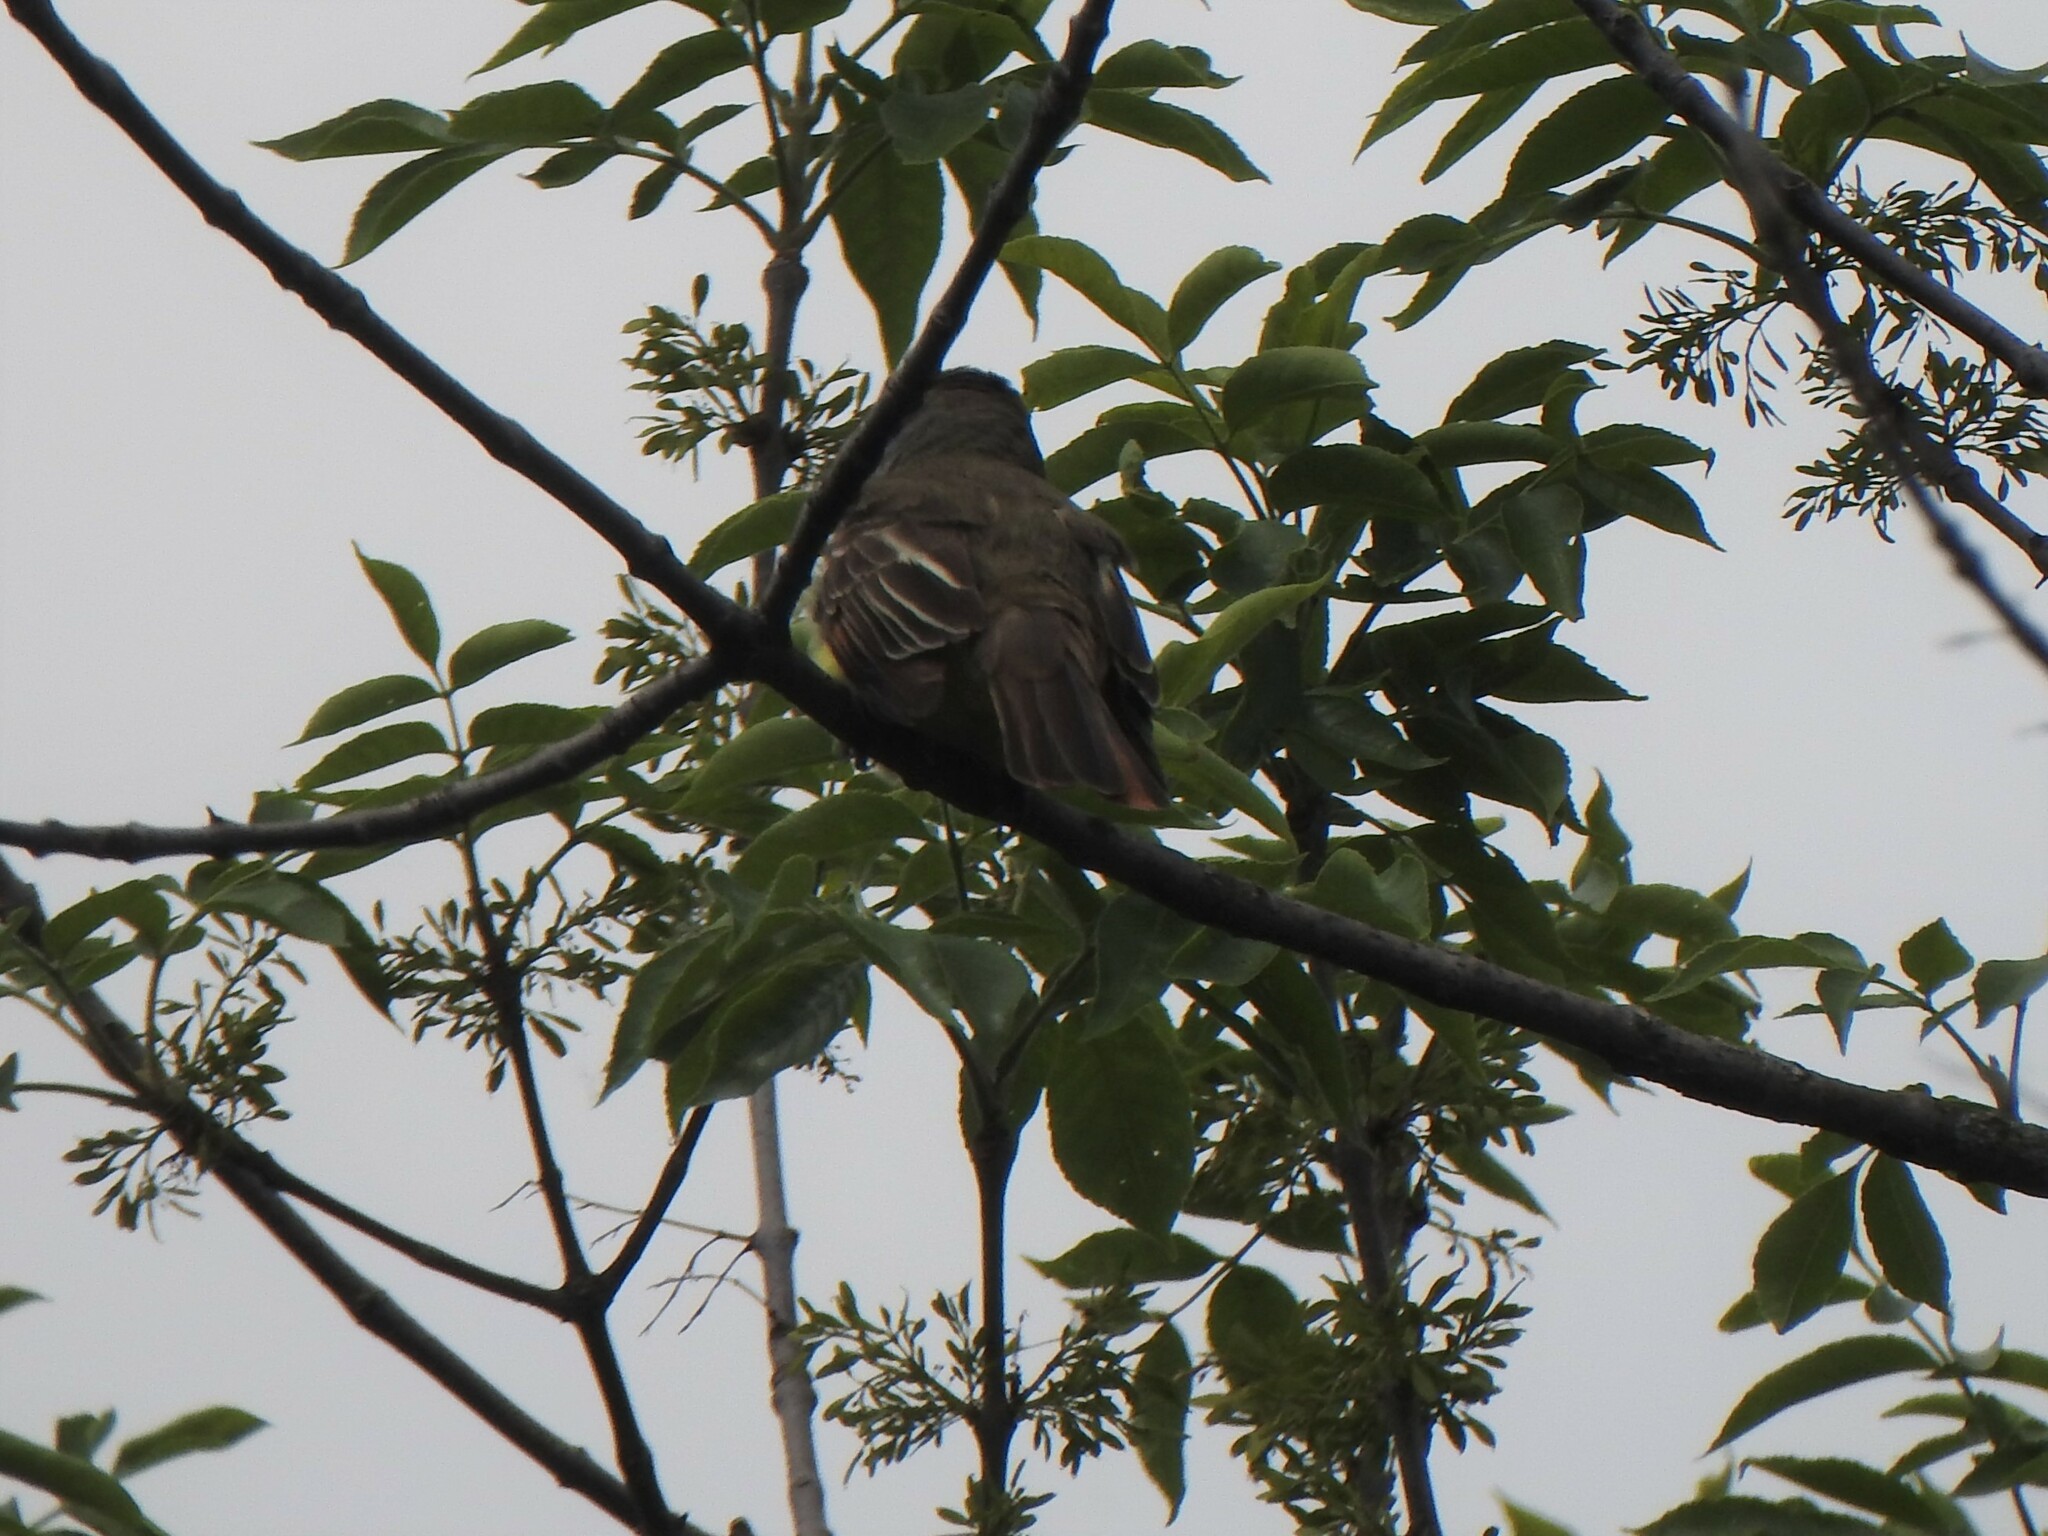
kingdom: Animalia
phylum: Chordata
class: Aves
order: Passeriformes
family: Tyrannidae
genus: Myiarchus
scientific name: Myiarchus crinitus
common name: Great crested flycatcher
